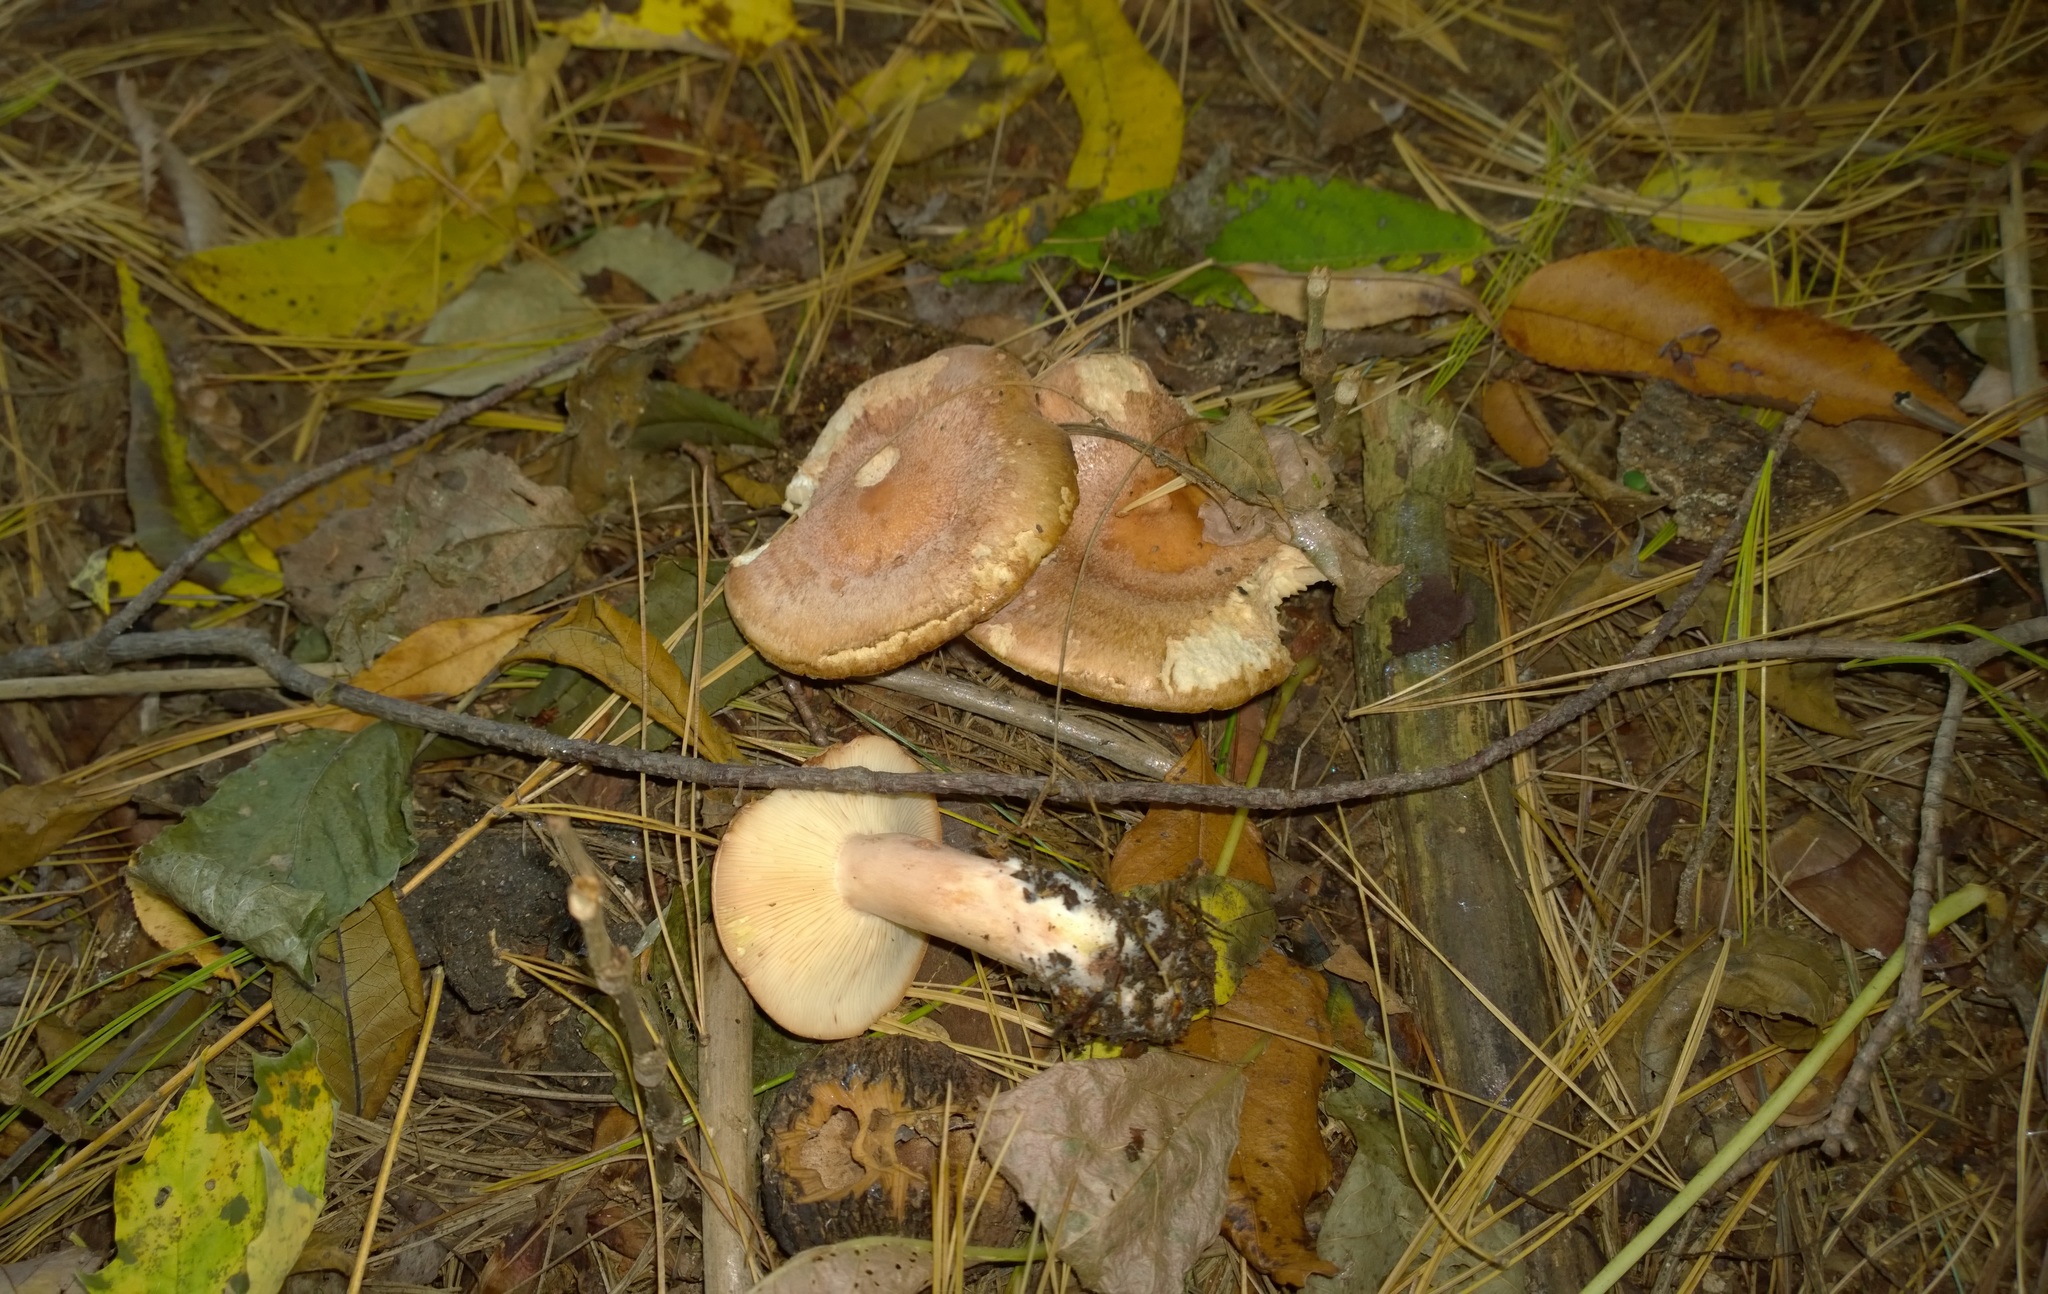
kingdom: Fungi
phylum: Basidiomycota
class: Agaricomycetes
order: Russulales
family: Russulaceae
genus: Lactarius
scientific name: Lactarius vinaceorufescens
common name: Yellow-latex milkcap
